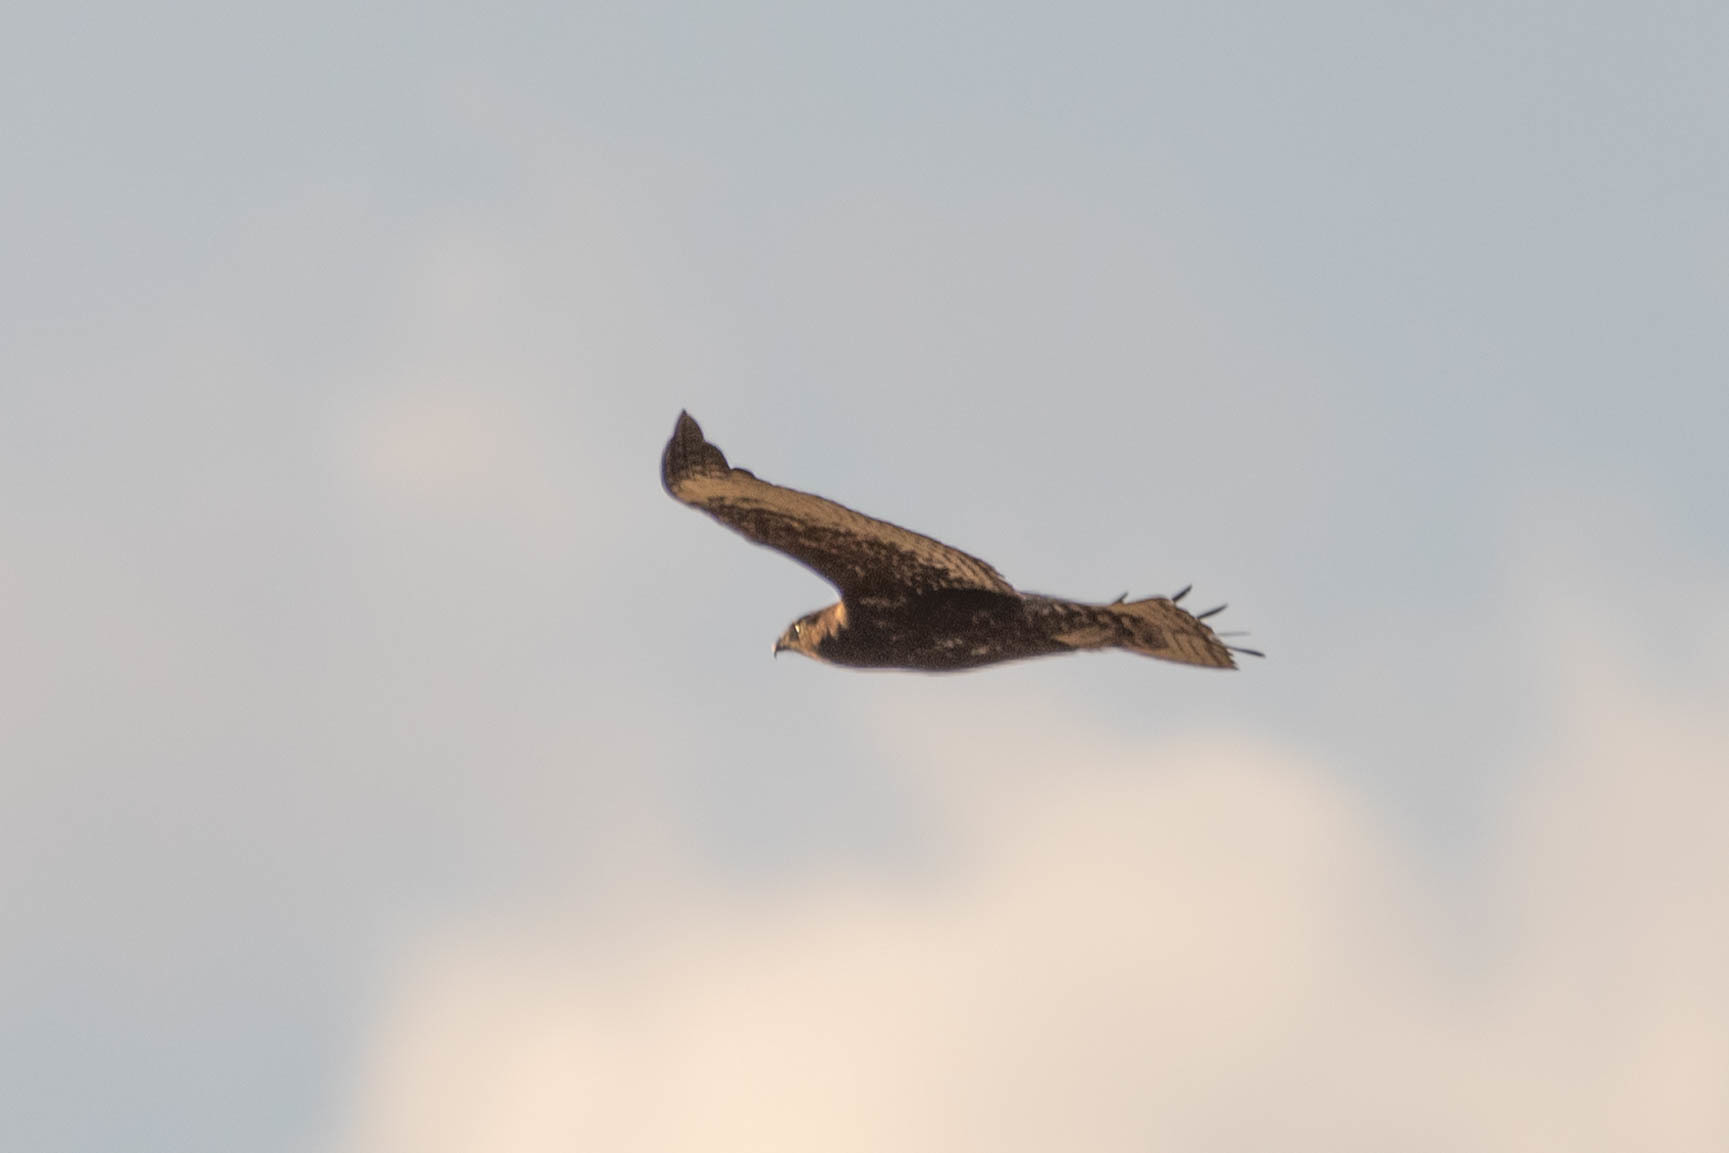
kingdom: Animalia
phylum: Chordata
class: Aves
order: Accipitriformes
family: Accipitridae
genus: Buteo
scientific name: Buteo jamaicensis
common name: Red-tailed hawk
